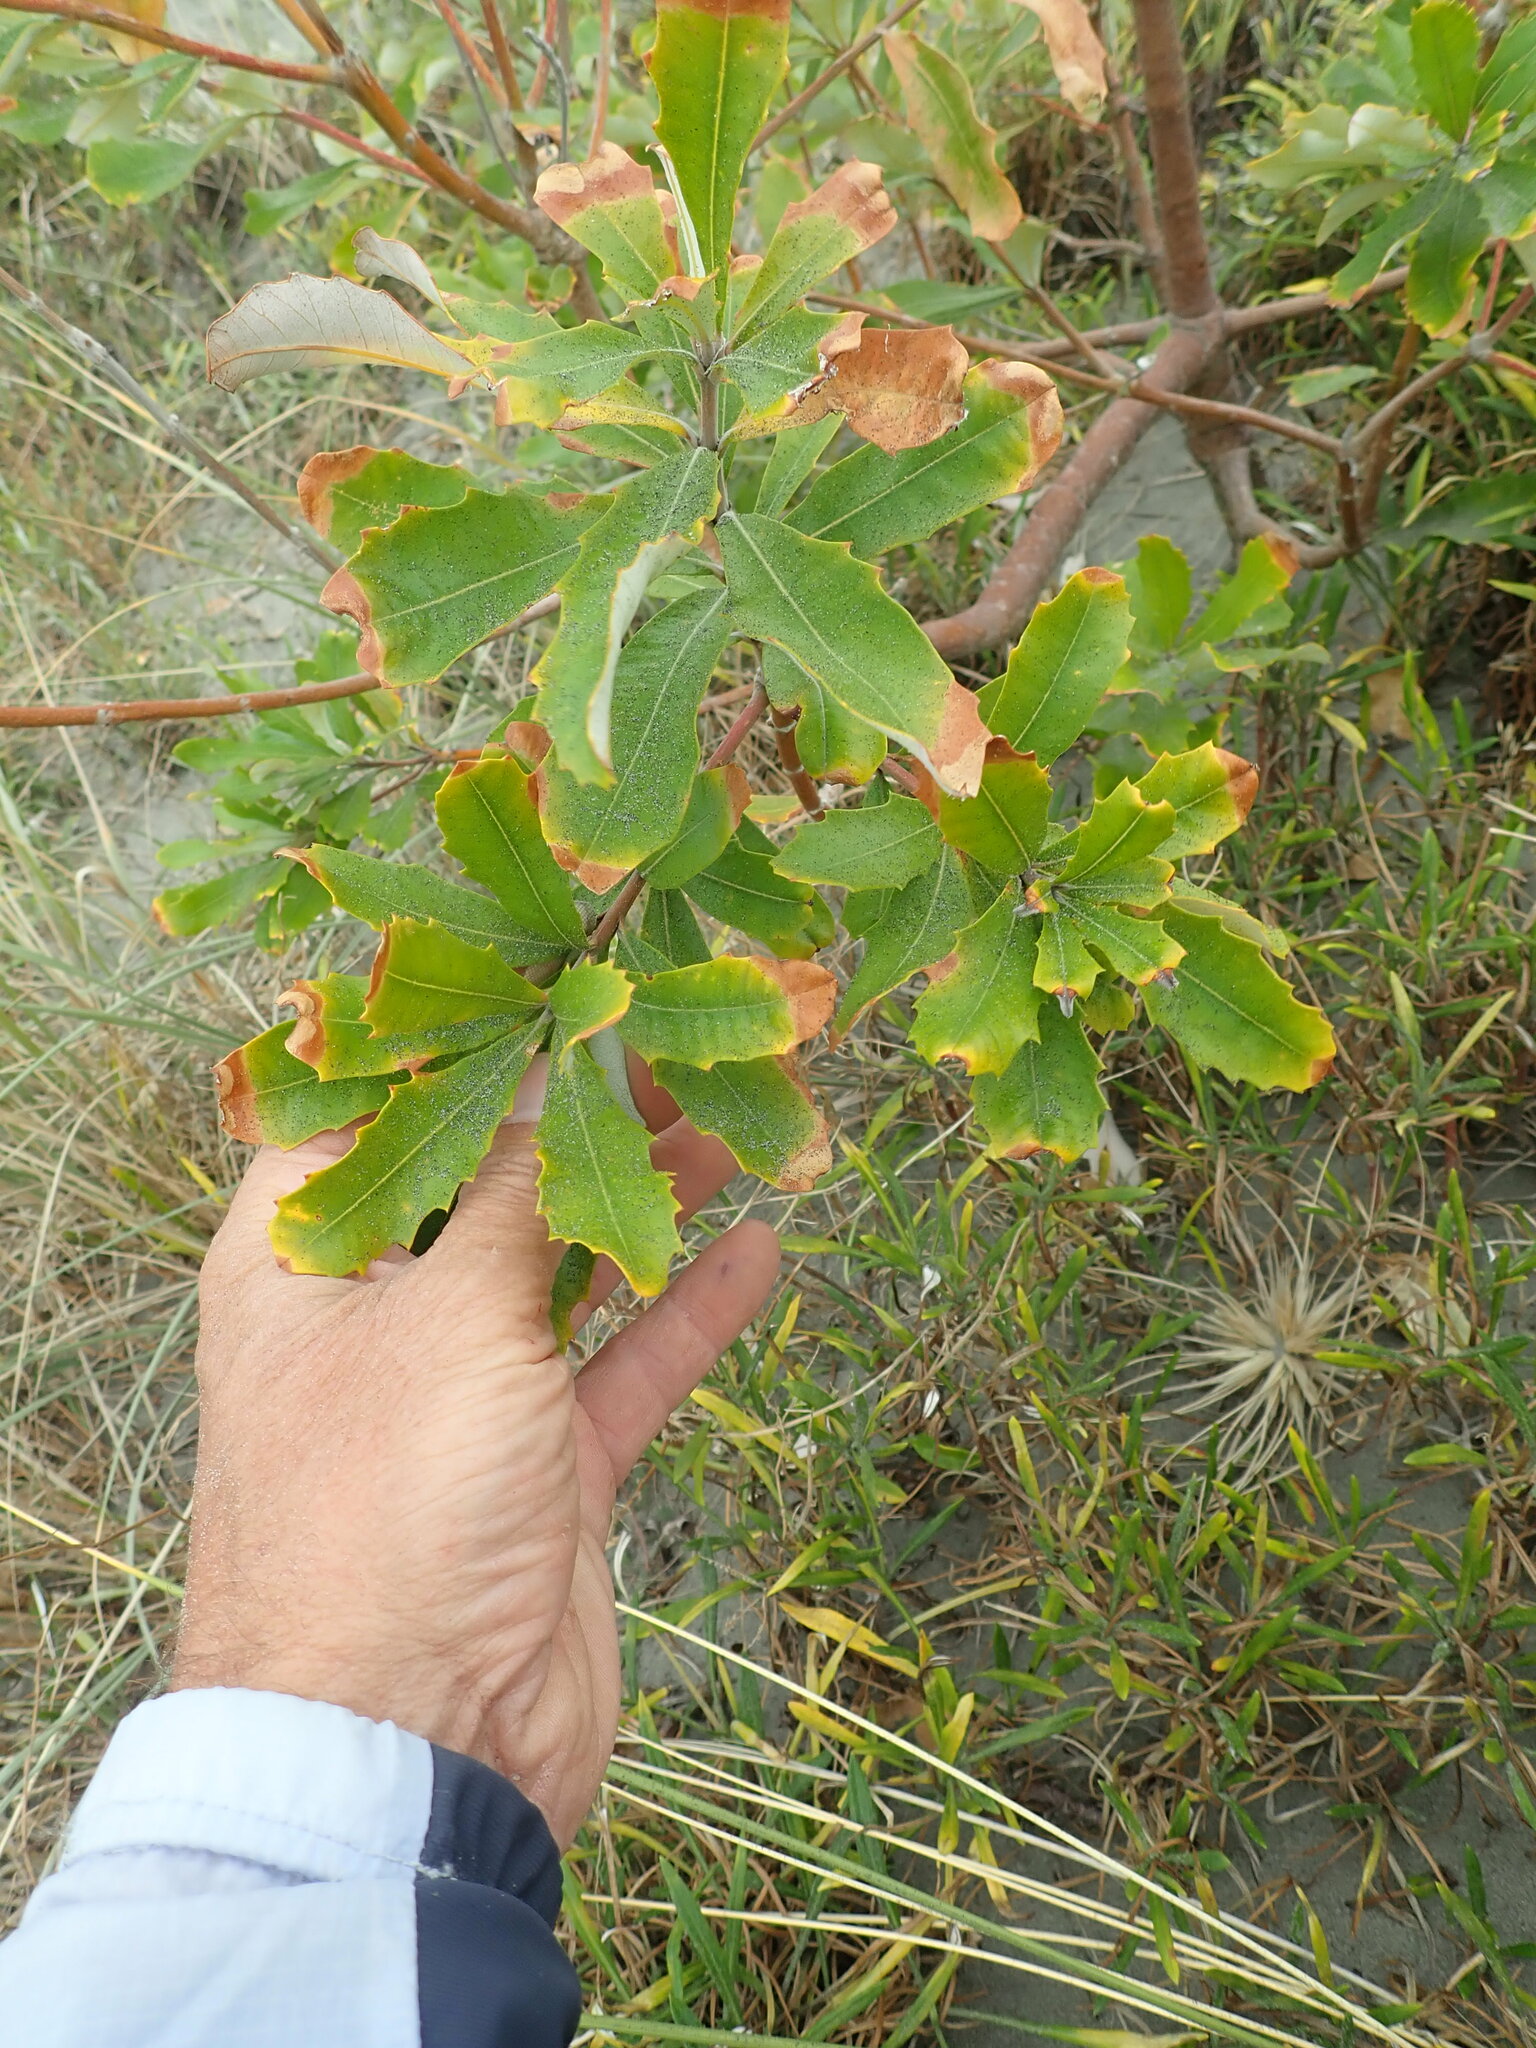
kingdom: Plantae
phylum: Tracheophyta
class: Magnoliopsida
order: Proteales
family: Proteaceae
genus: Banksia
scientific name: Banksia integrifolia
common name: White-honeysuckle
